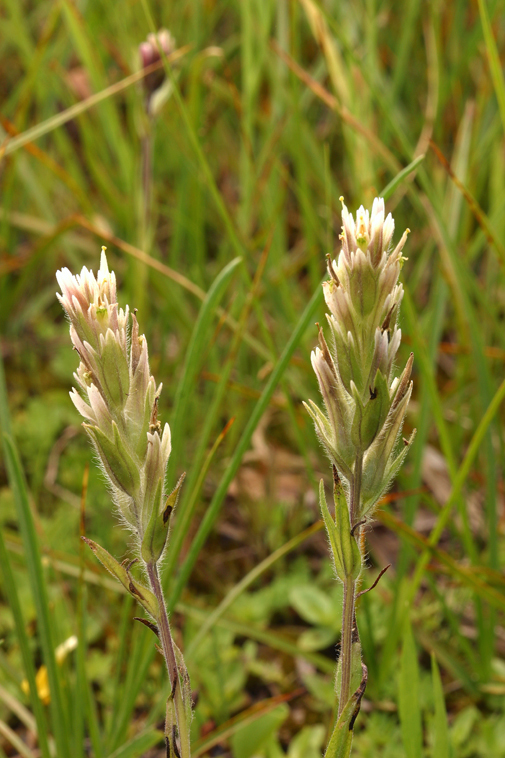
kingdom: Plantae
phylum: Tracheophyta
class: Magnoliopsida
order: Lamiales
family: Orobanchaceae
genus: Castilleja
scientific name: Castilleja lemmonii
